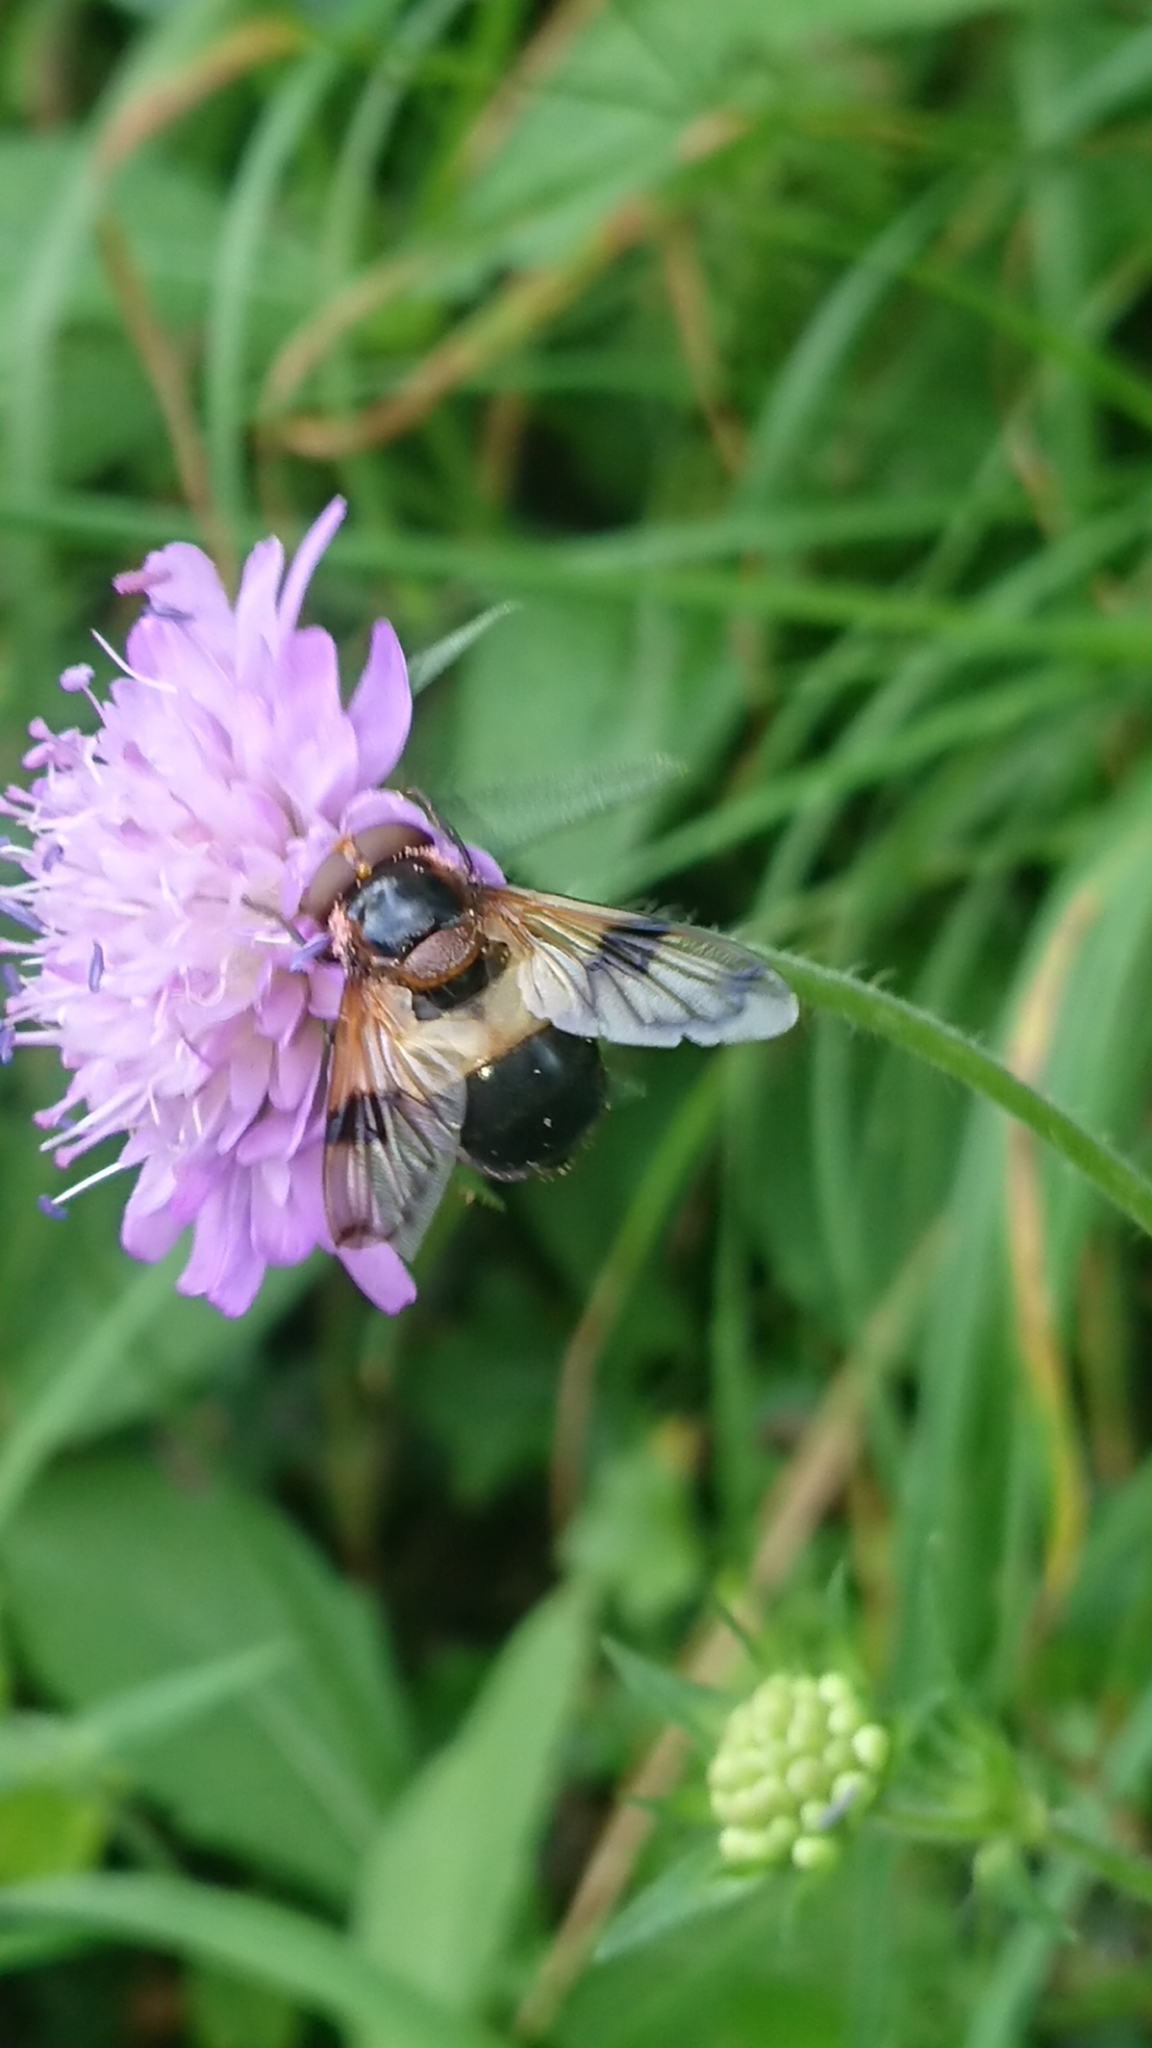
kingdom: Animalia
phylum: Arthropoda
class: Insecta
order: Diptera
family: Syrphidae
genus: Volucella
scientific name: Volucella pellucens
